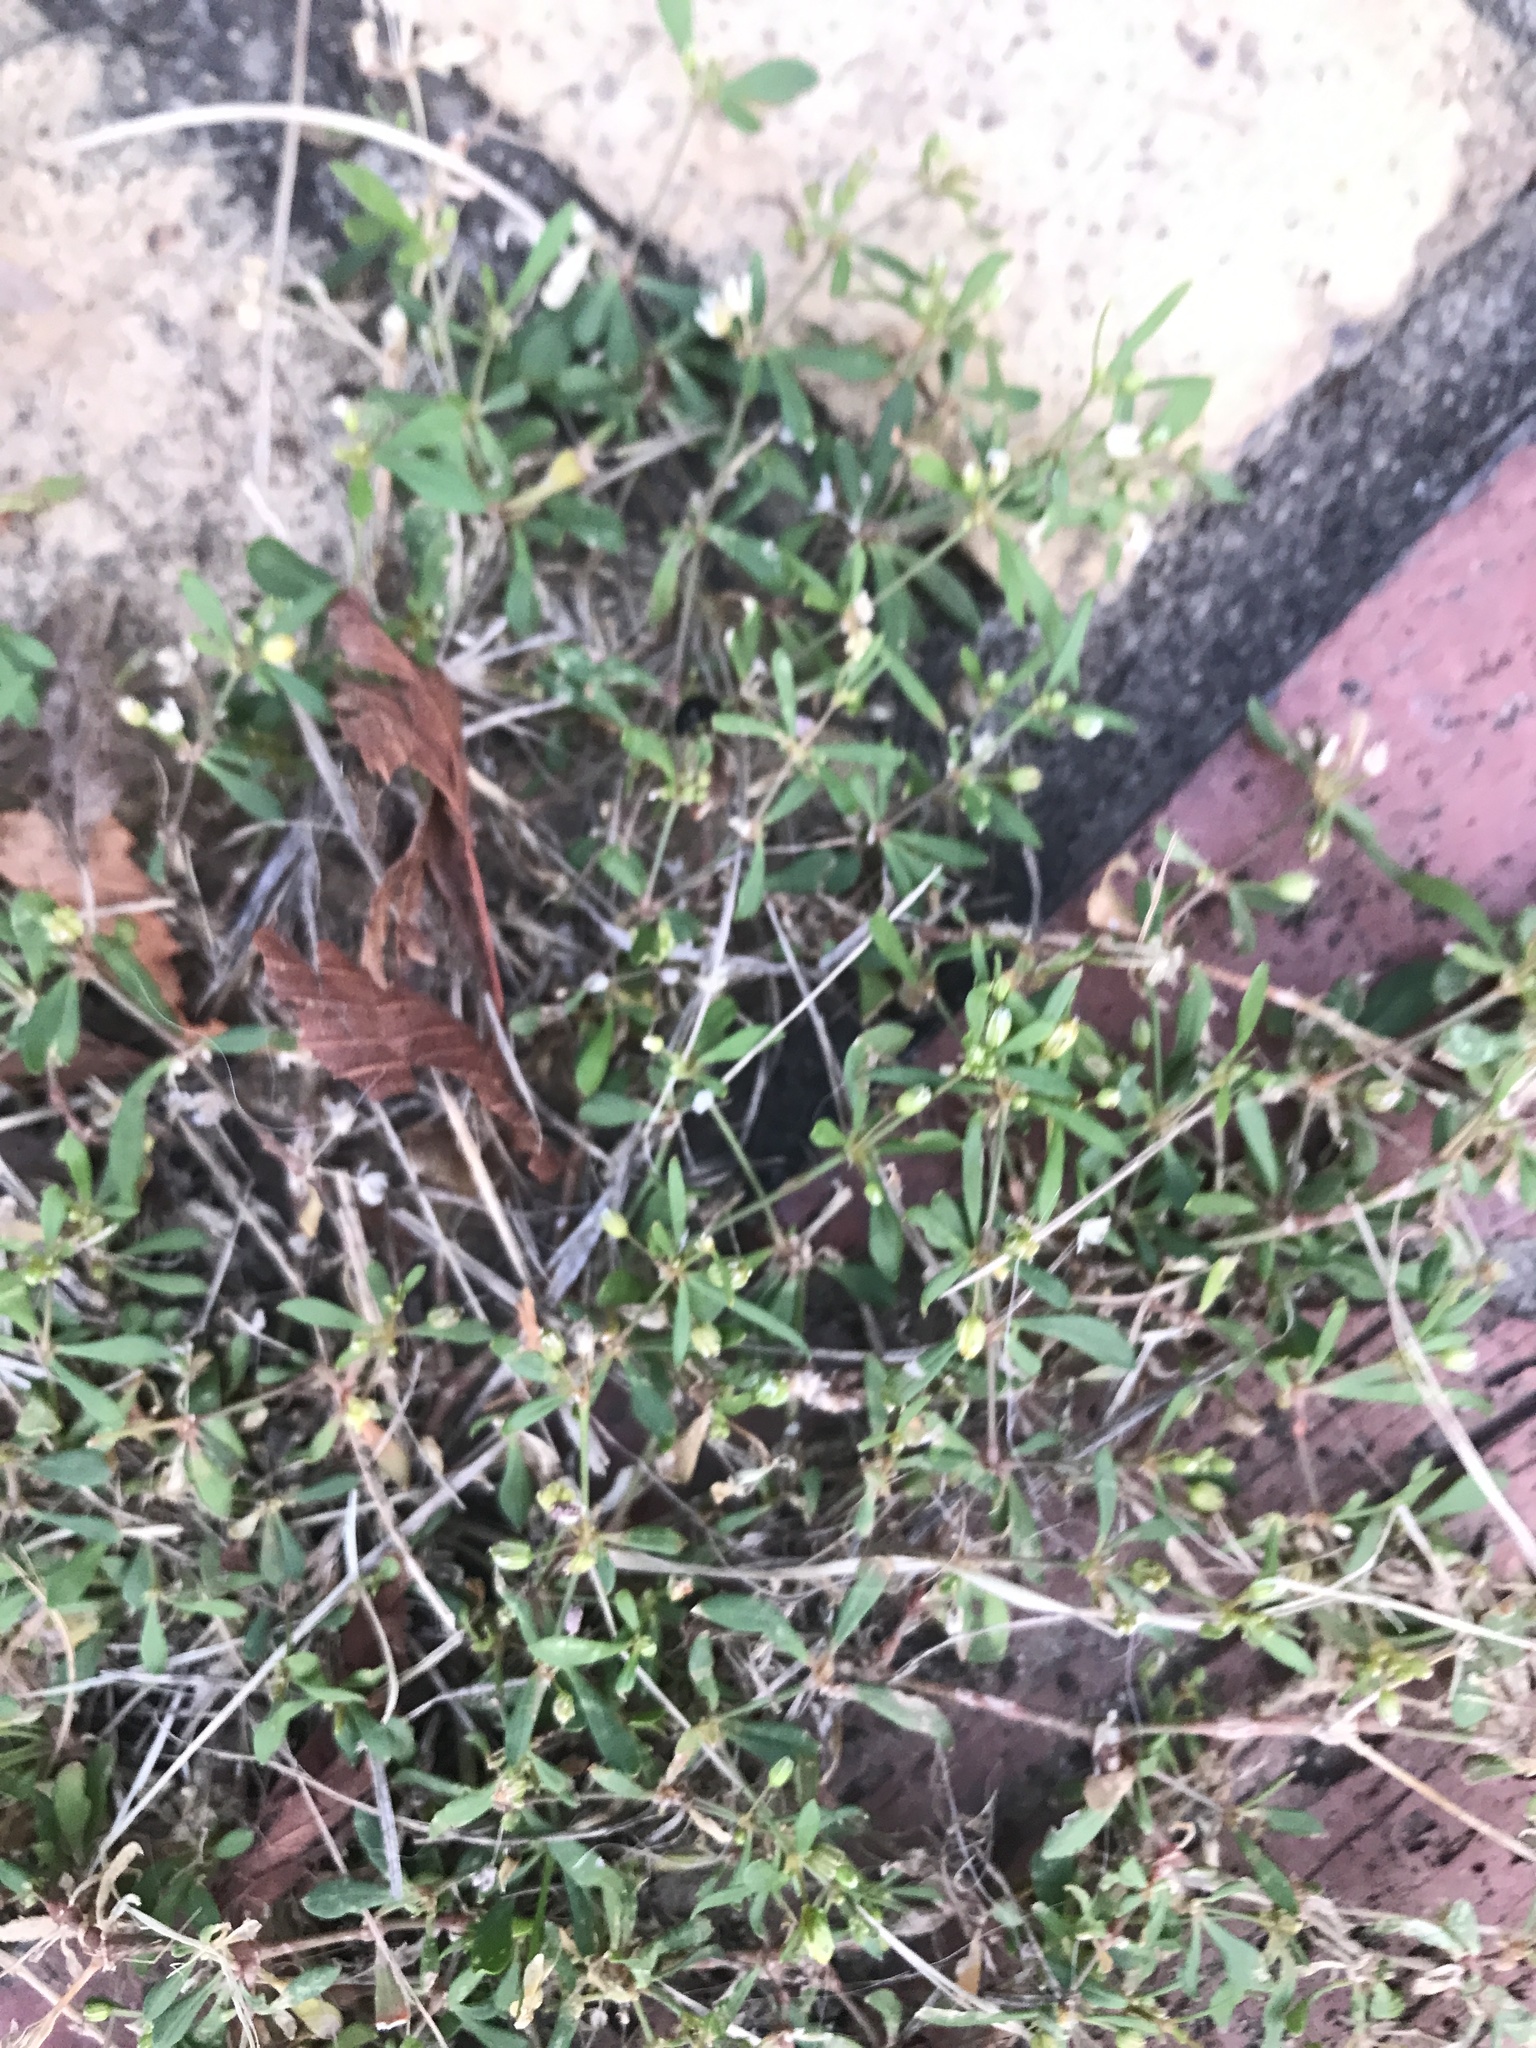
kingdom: Plantae
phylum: Tracheophyta
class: Magnoliopsida
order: Caryophyllales
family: Molluginaceae
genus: Mollugo
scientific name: Mollugo verticillata
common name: Green carpetweed
